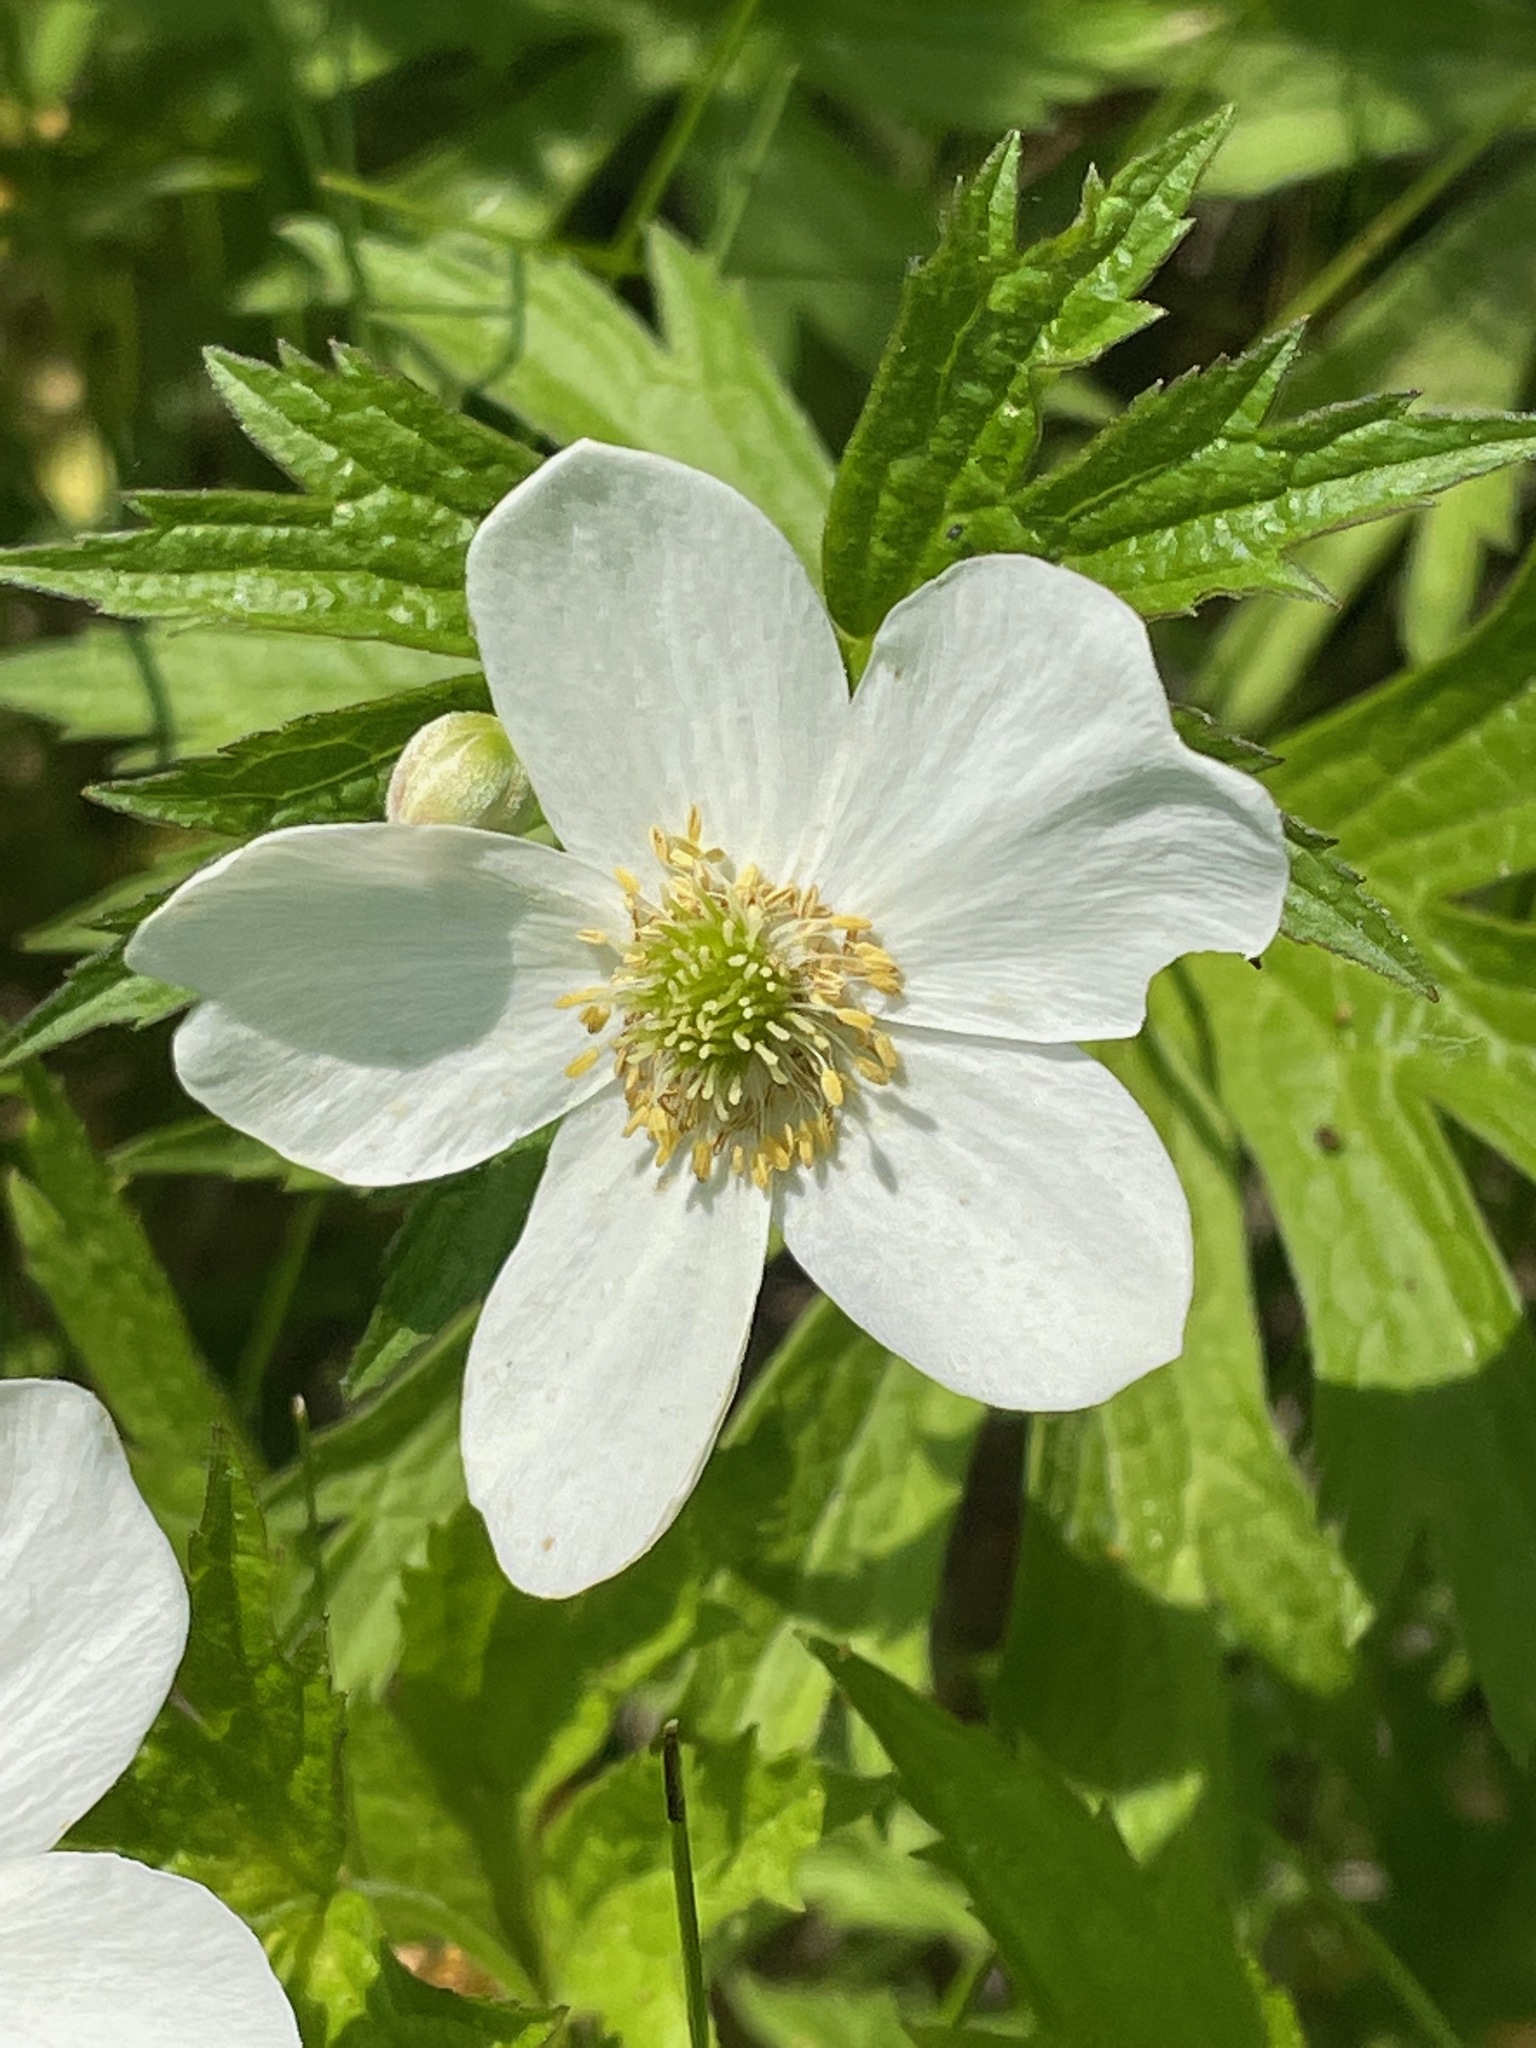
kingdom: Plantae
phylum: Tracheophyta
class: Magnoliopsida
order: Ranunculales
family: Ranunculaceae
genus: Anemonastrum
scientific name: Anemonastrum canadense
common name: Canada anemone
